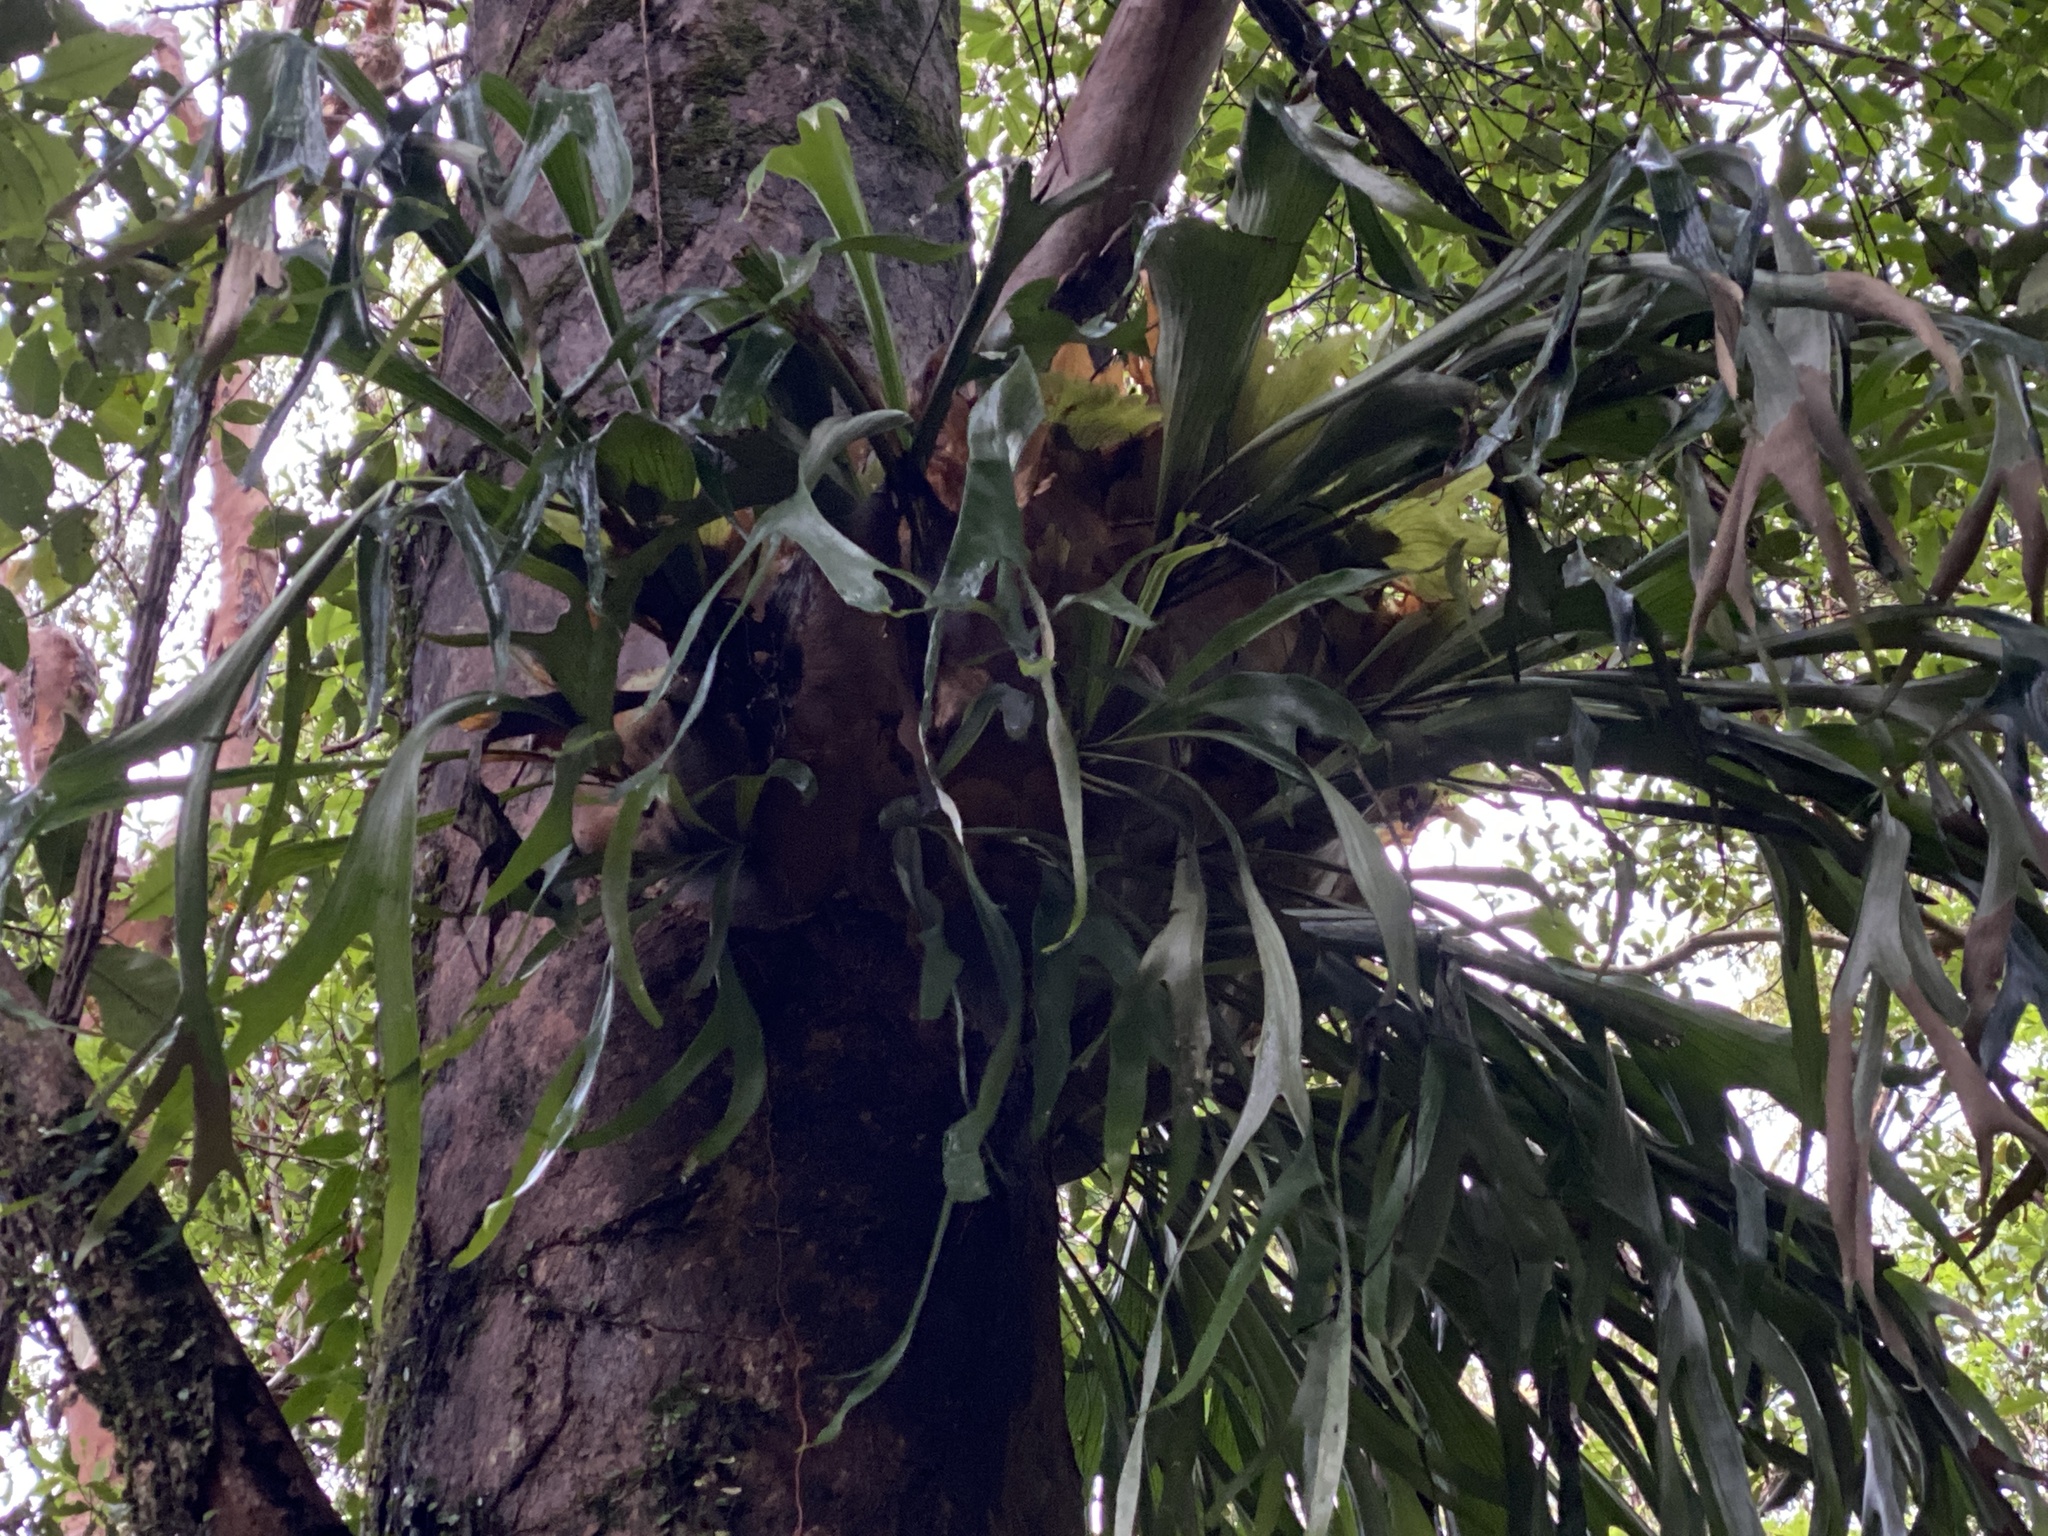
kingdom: Plantae
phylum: Tracheophyta
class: Polypodiopsida
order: Polypodiales
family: Polypodiaceae
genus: Platycerium
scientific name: Platycerium bifurcatum
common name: Elkhorn fern
